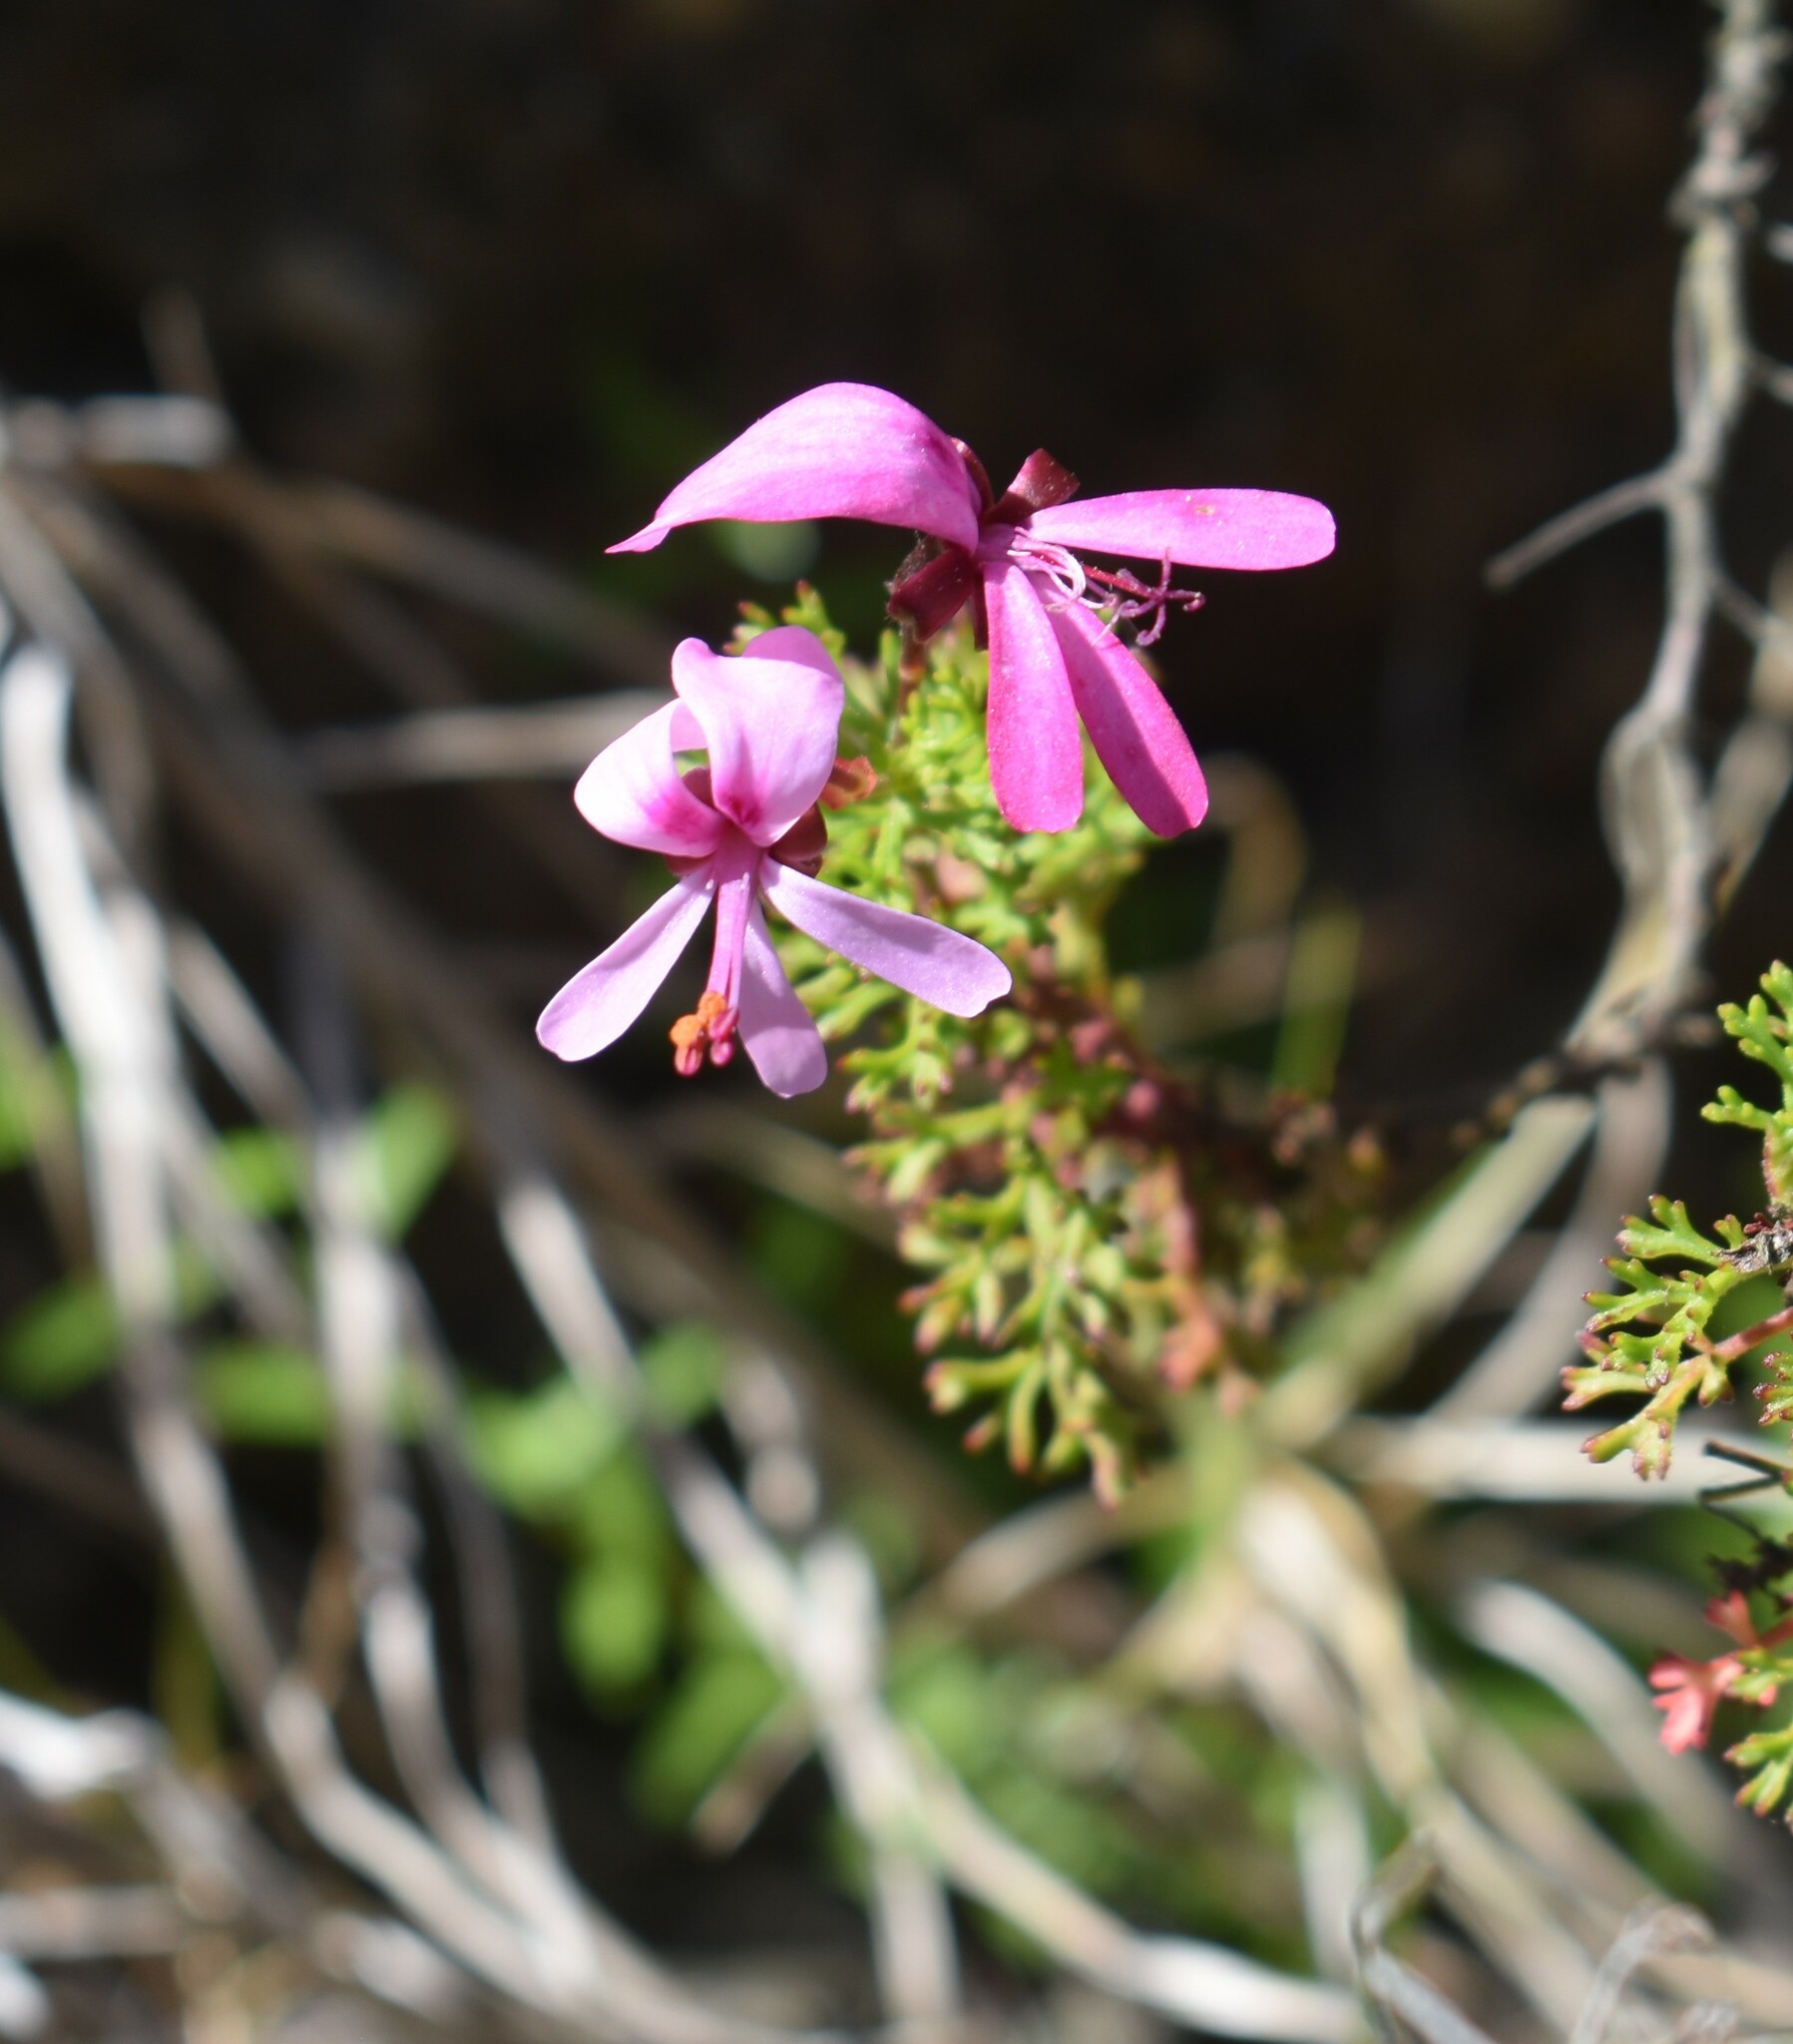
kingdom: Plantae
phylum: Tracheophyta
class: Magnoliopsida
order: Geraniales
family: Geraniaceae
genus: Pelargonium
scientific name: Pelargonium fruticosum
